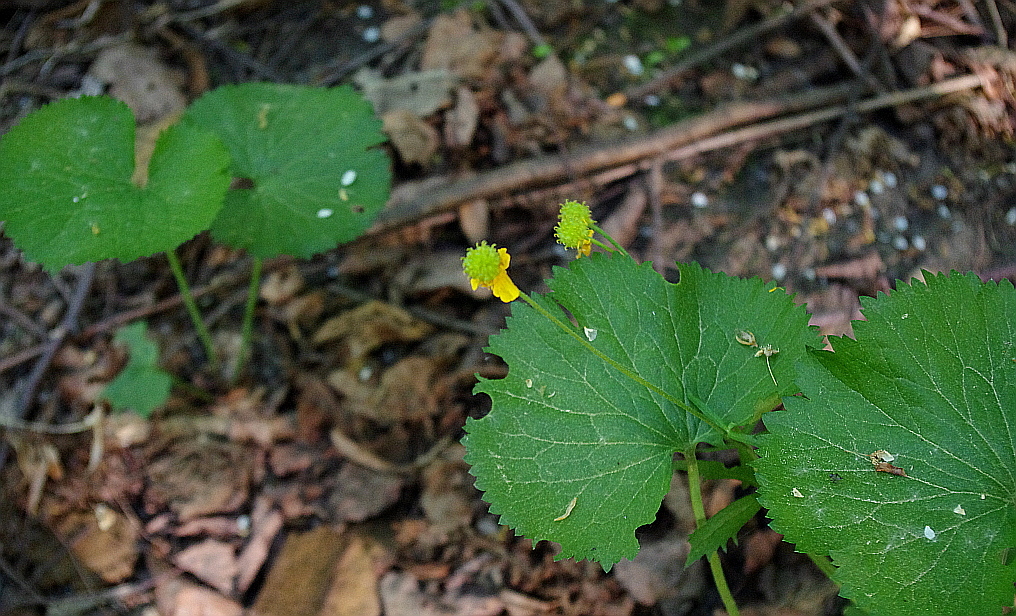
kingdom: Plantae
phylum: Tracheophyta
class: Magnoliopsida
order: Ranunculales
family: Ranunculaceae
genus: Ranunculus
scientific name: Ranunculus cassubicus
